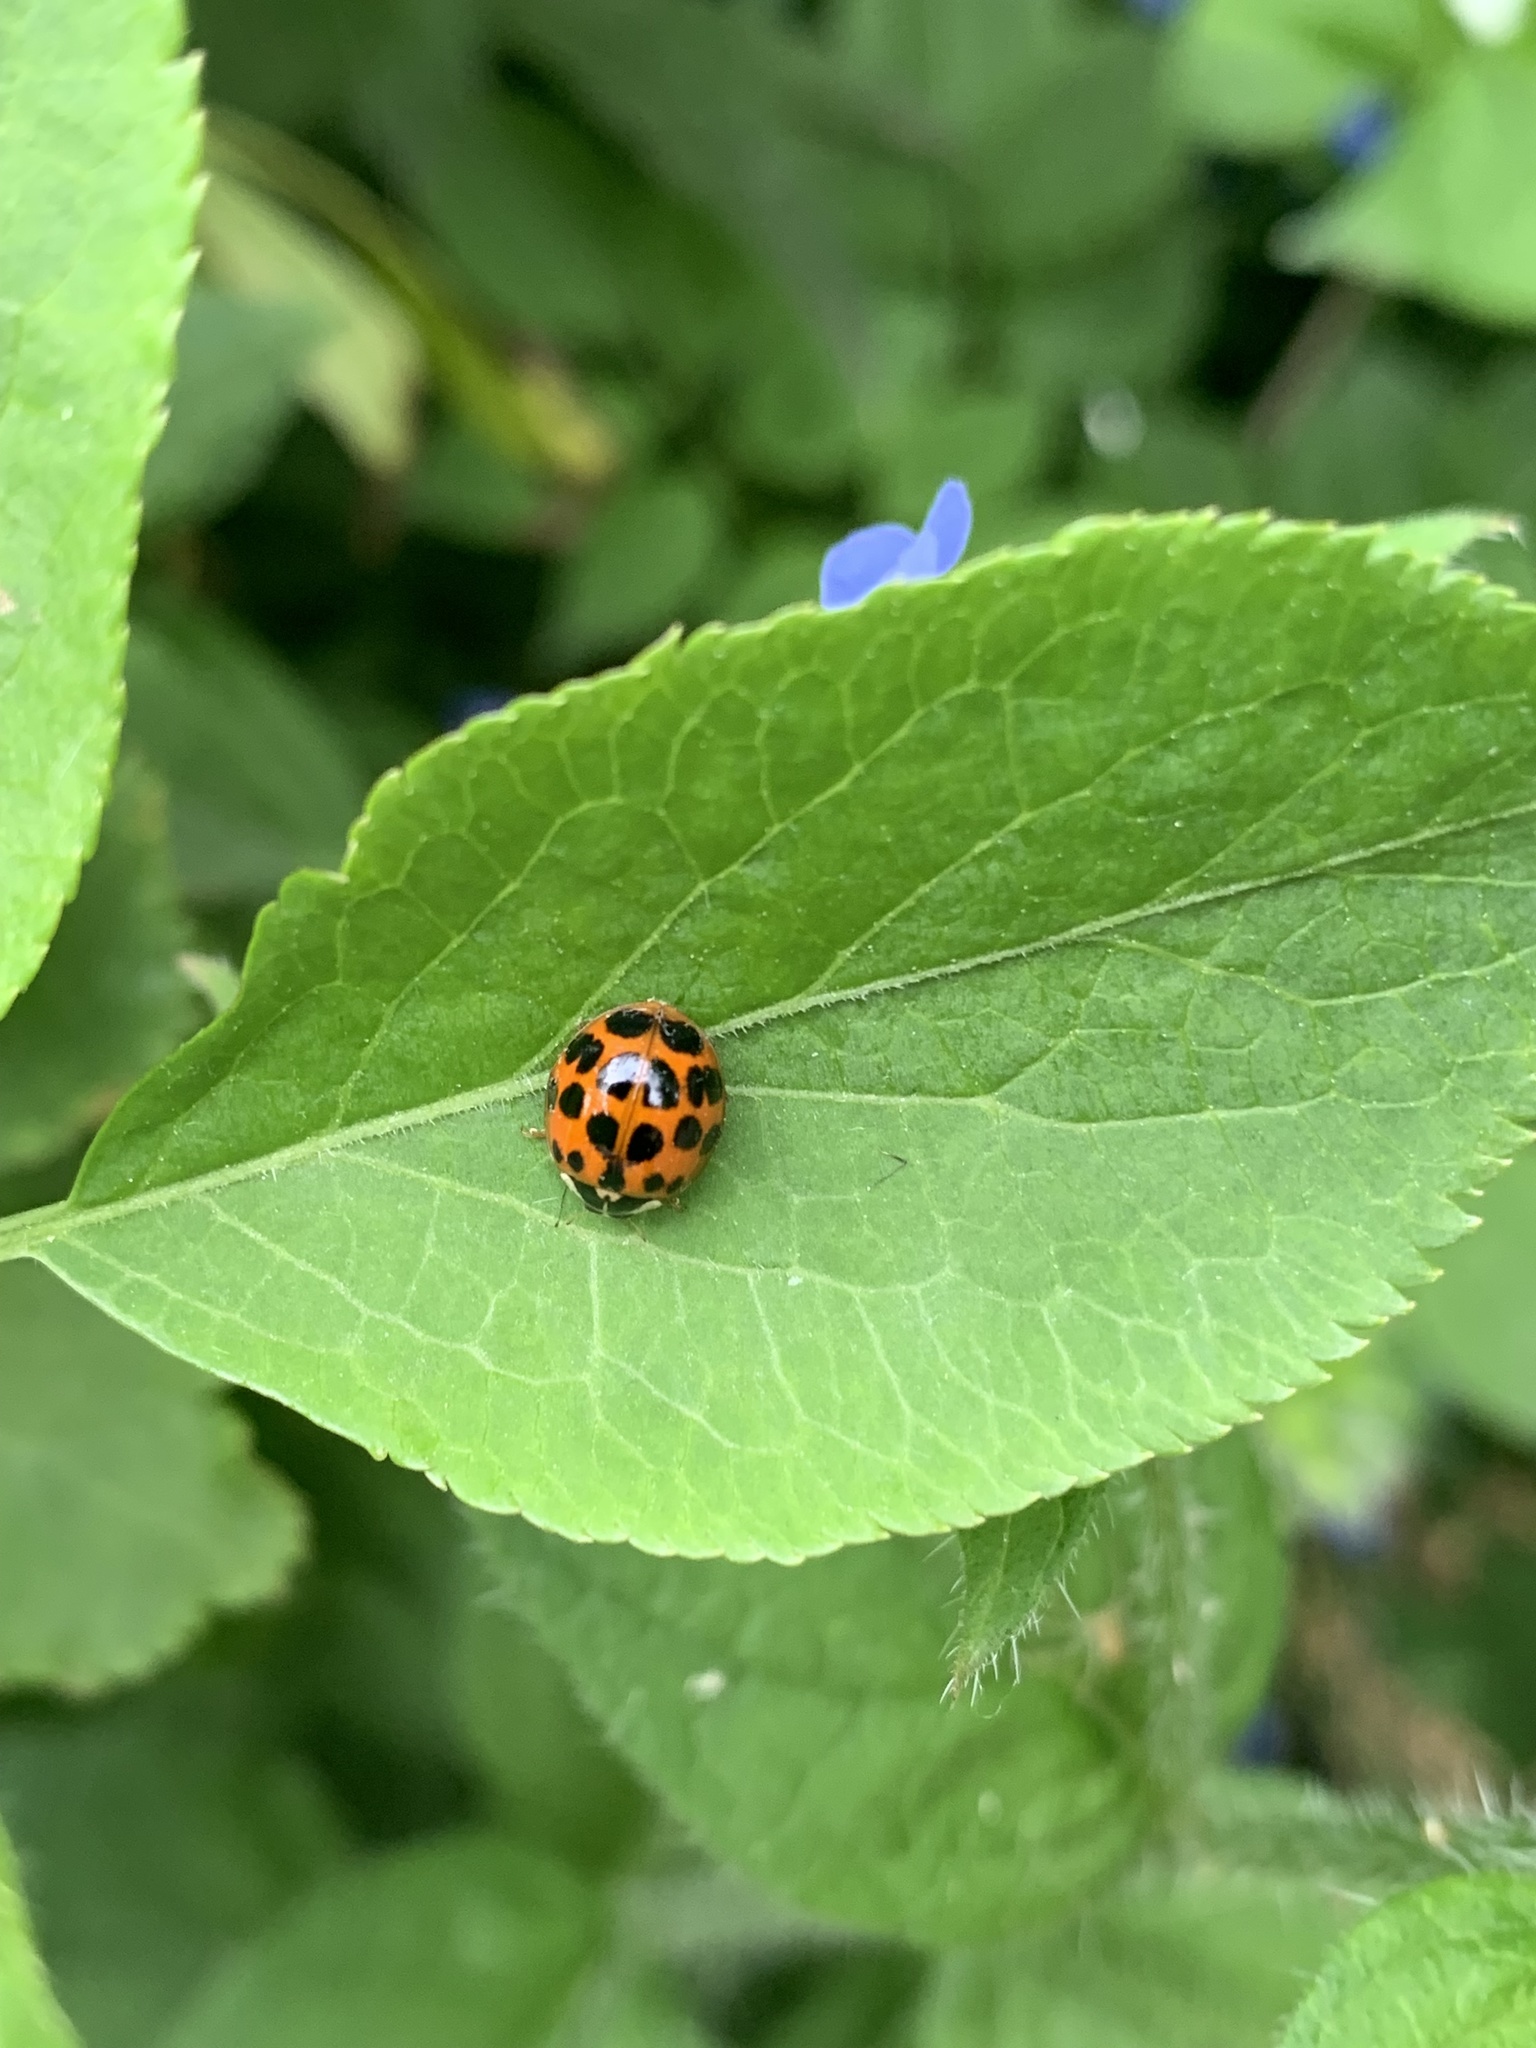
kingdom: Animalia
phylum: Arthropoda
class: Insecta
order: Coleoptera
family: Coccinellidae
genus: Harmonia
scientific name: Harmonia axyridis
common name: Harlequin ladybird
